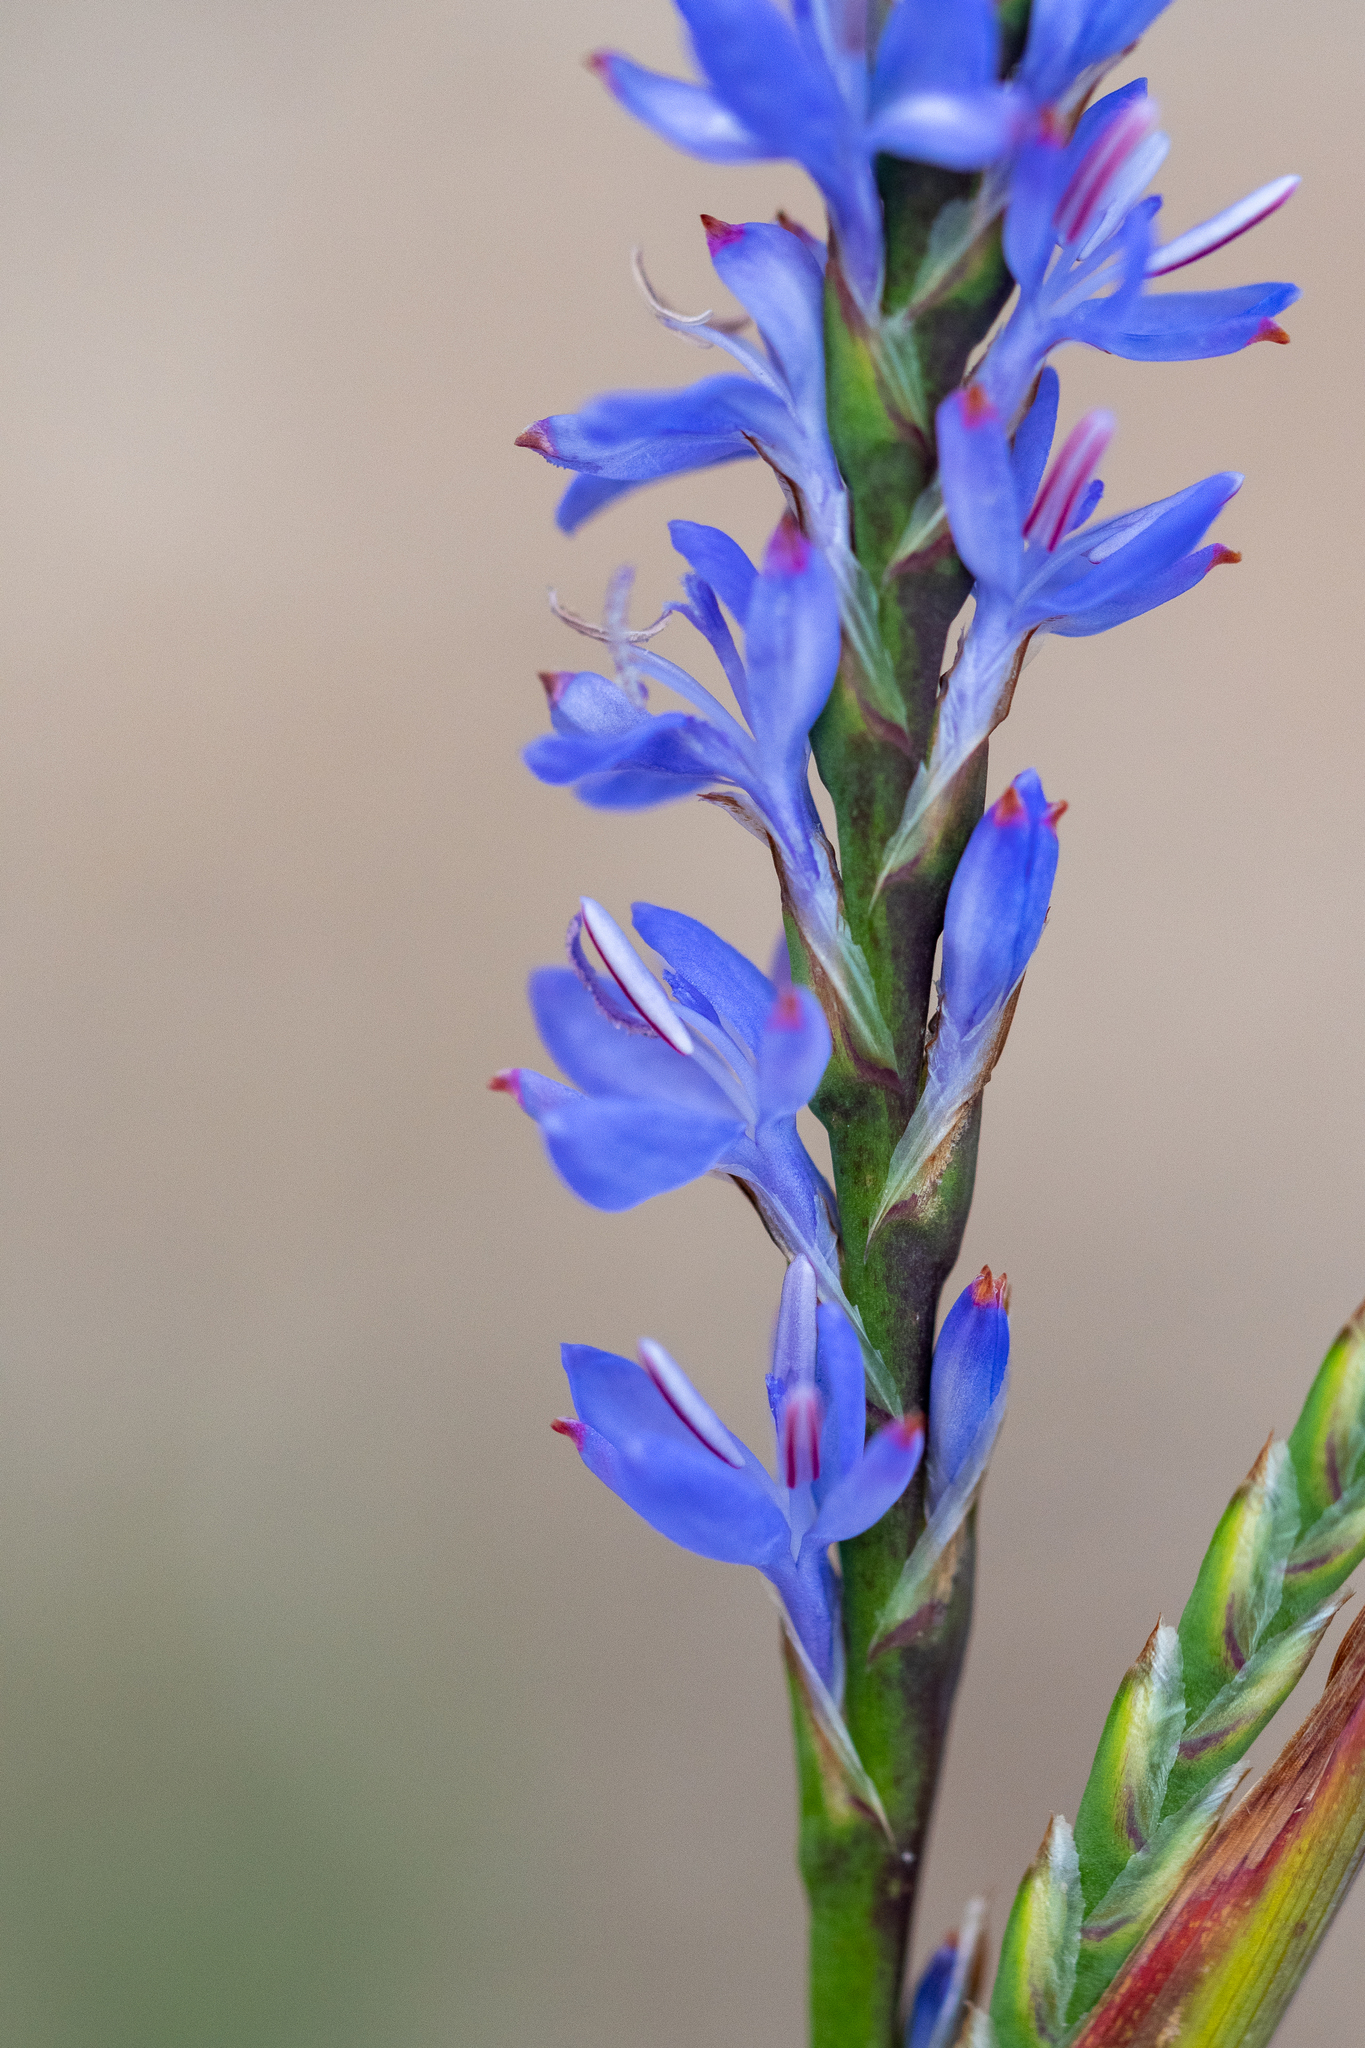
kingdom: Plantae
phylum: Tracheophyta
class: Liliopsida
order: Asparagales
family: Iridaceae
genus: Micranthus
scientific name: Micranthus plantagineus
